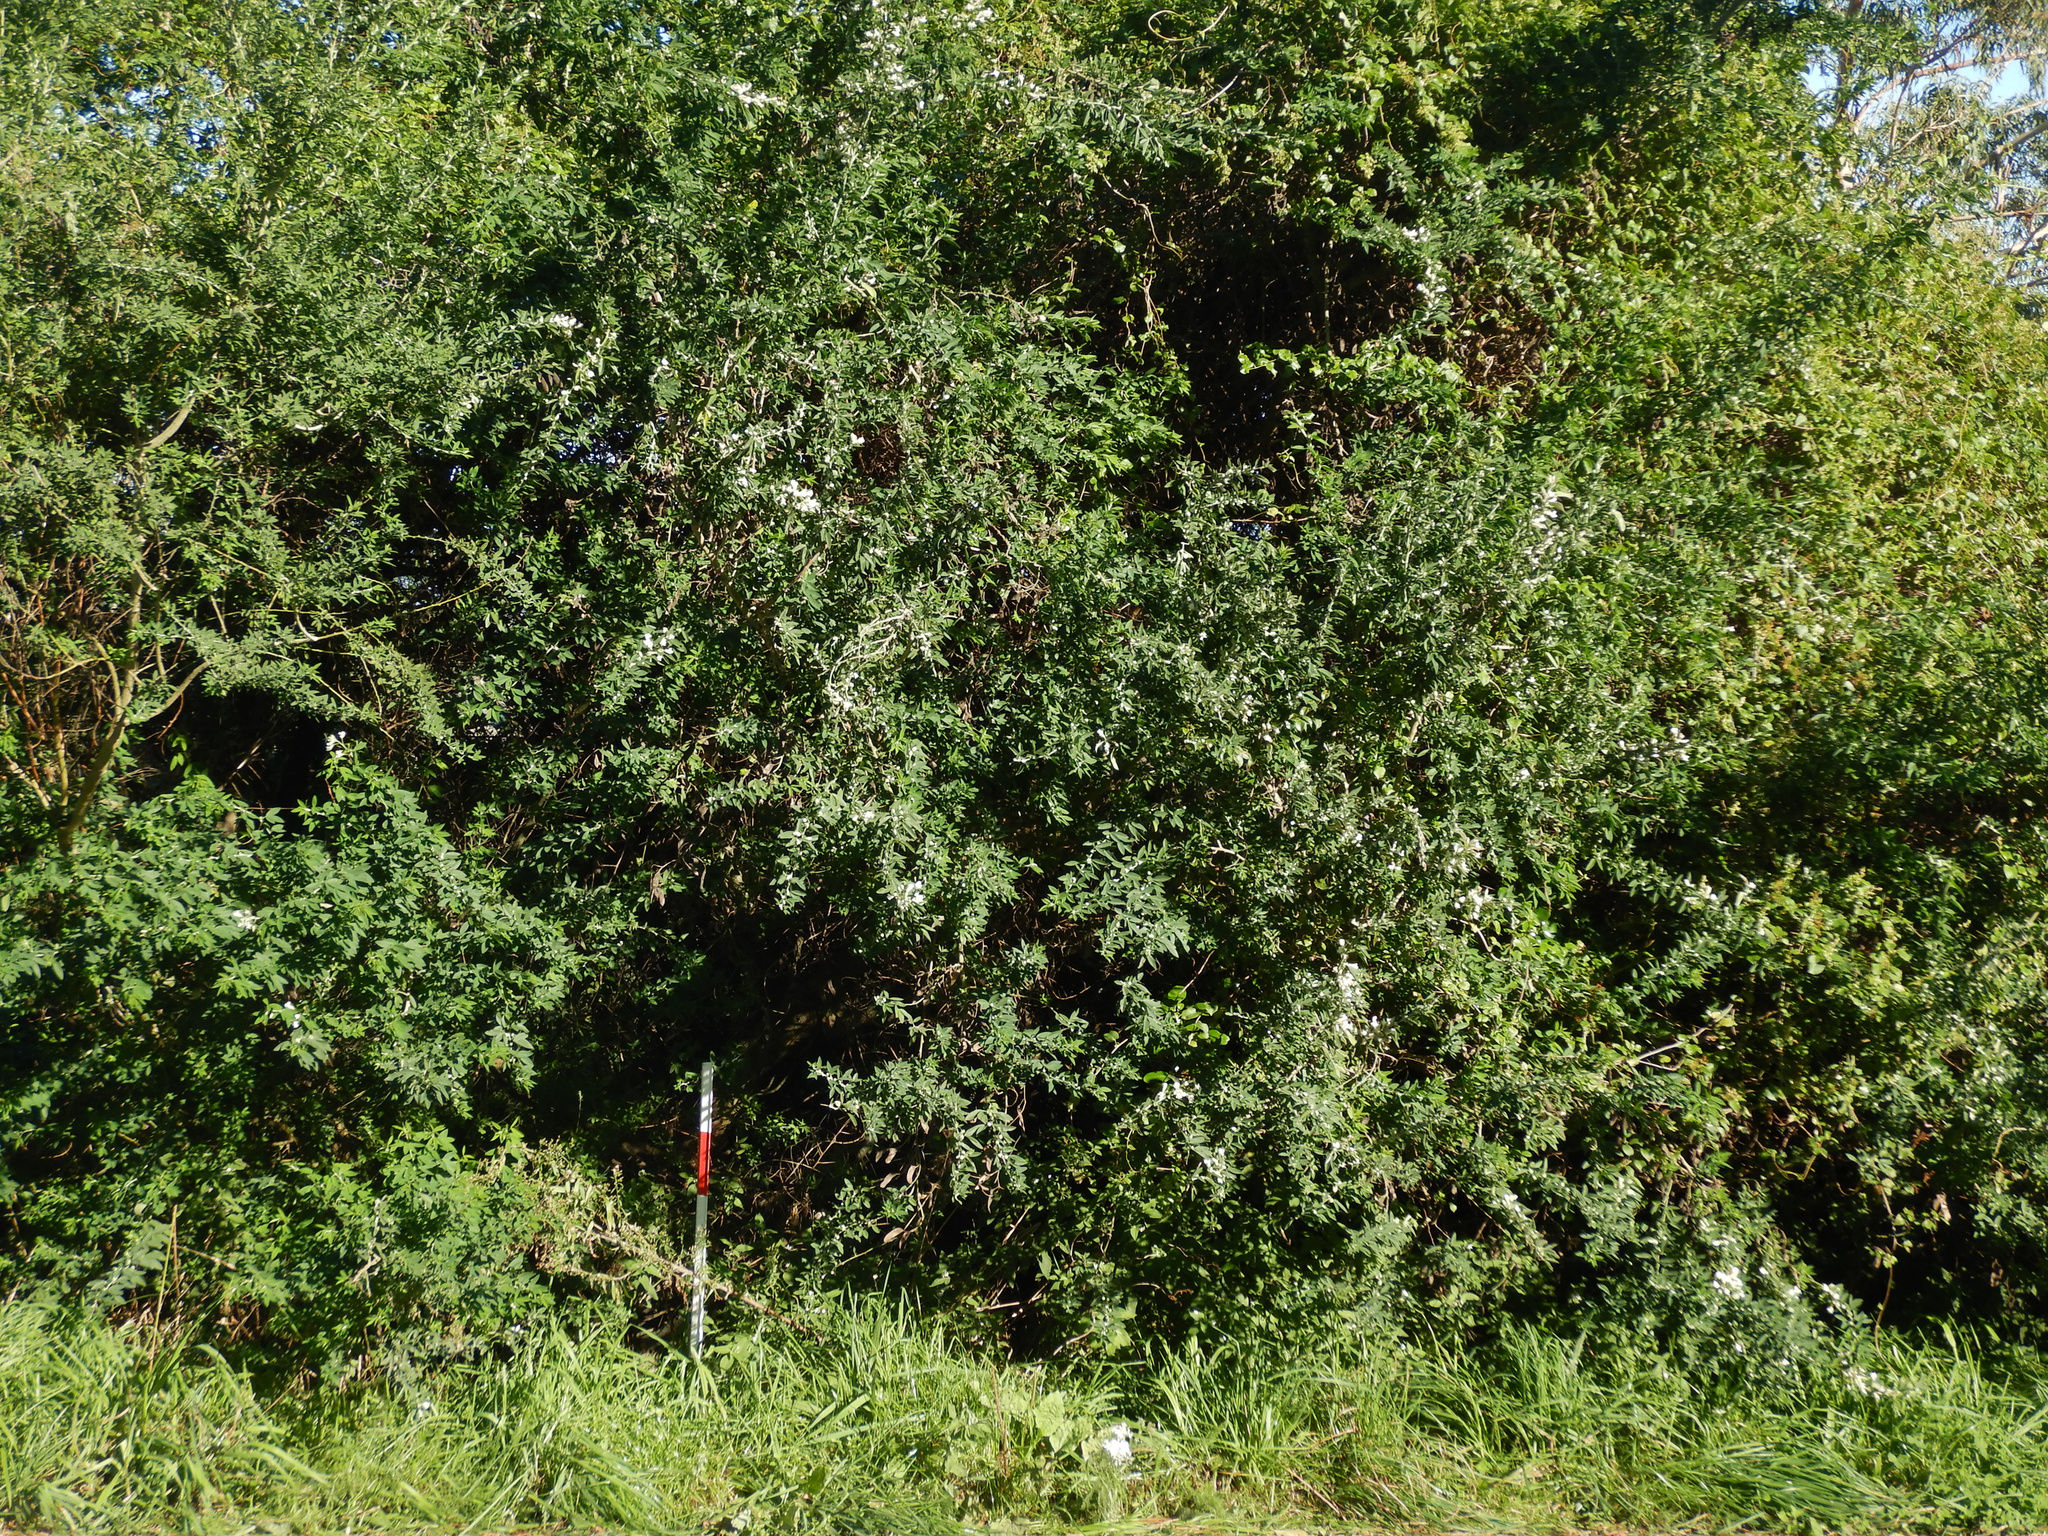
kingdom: Plantae
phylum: Tracheophyta
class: Magnoliopsida
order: Fabales
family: Fabaceae
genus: Chamaecytisus
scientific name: Chamaecytisus prolifer
